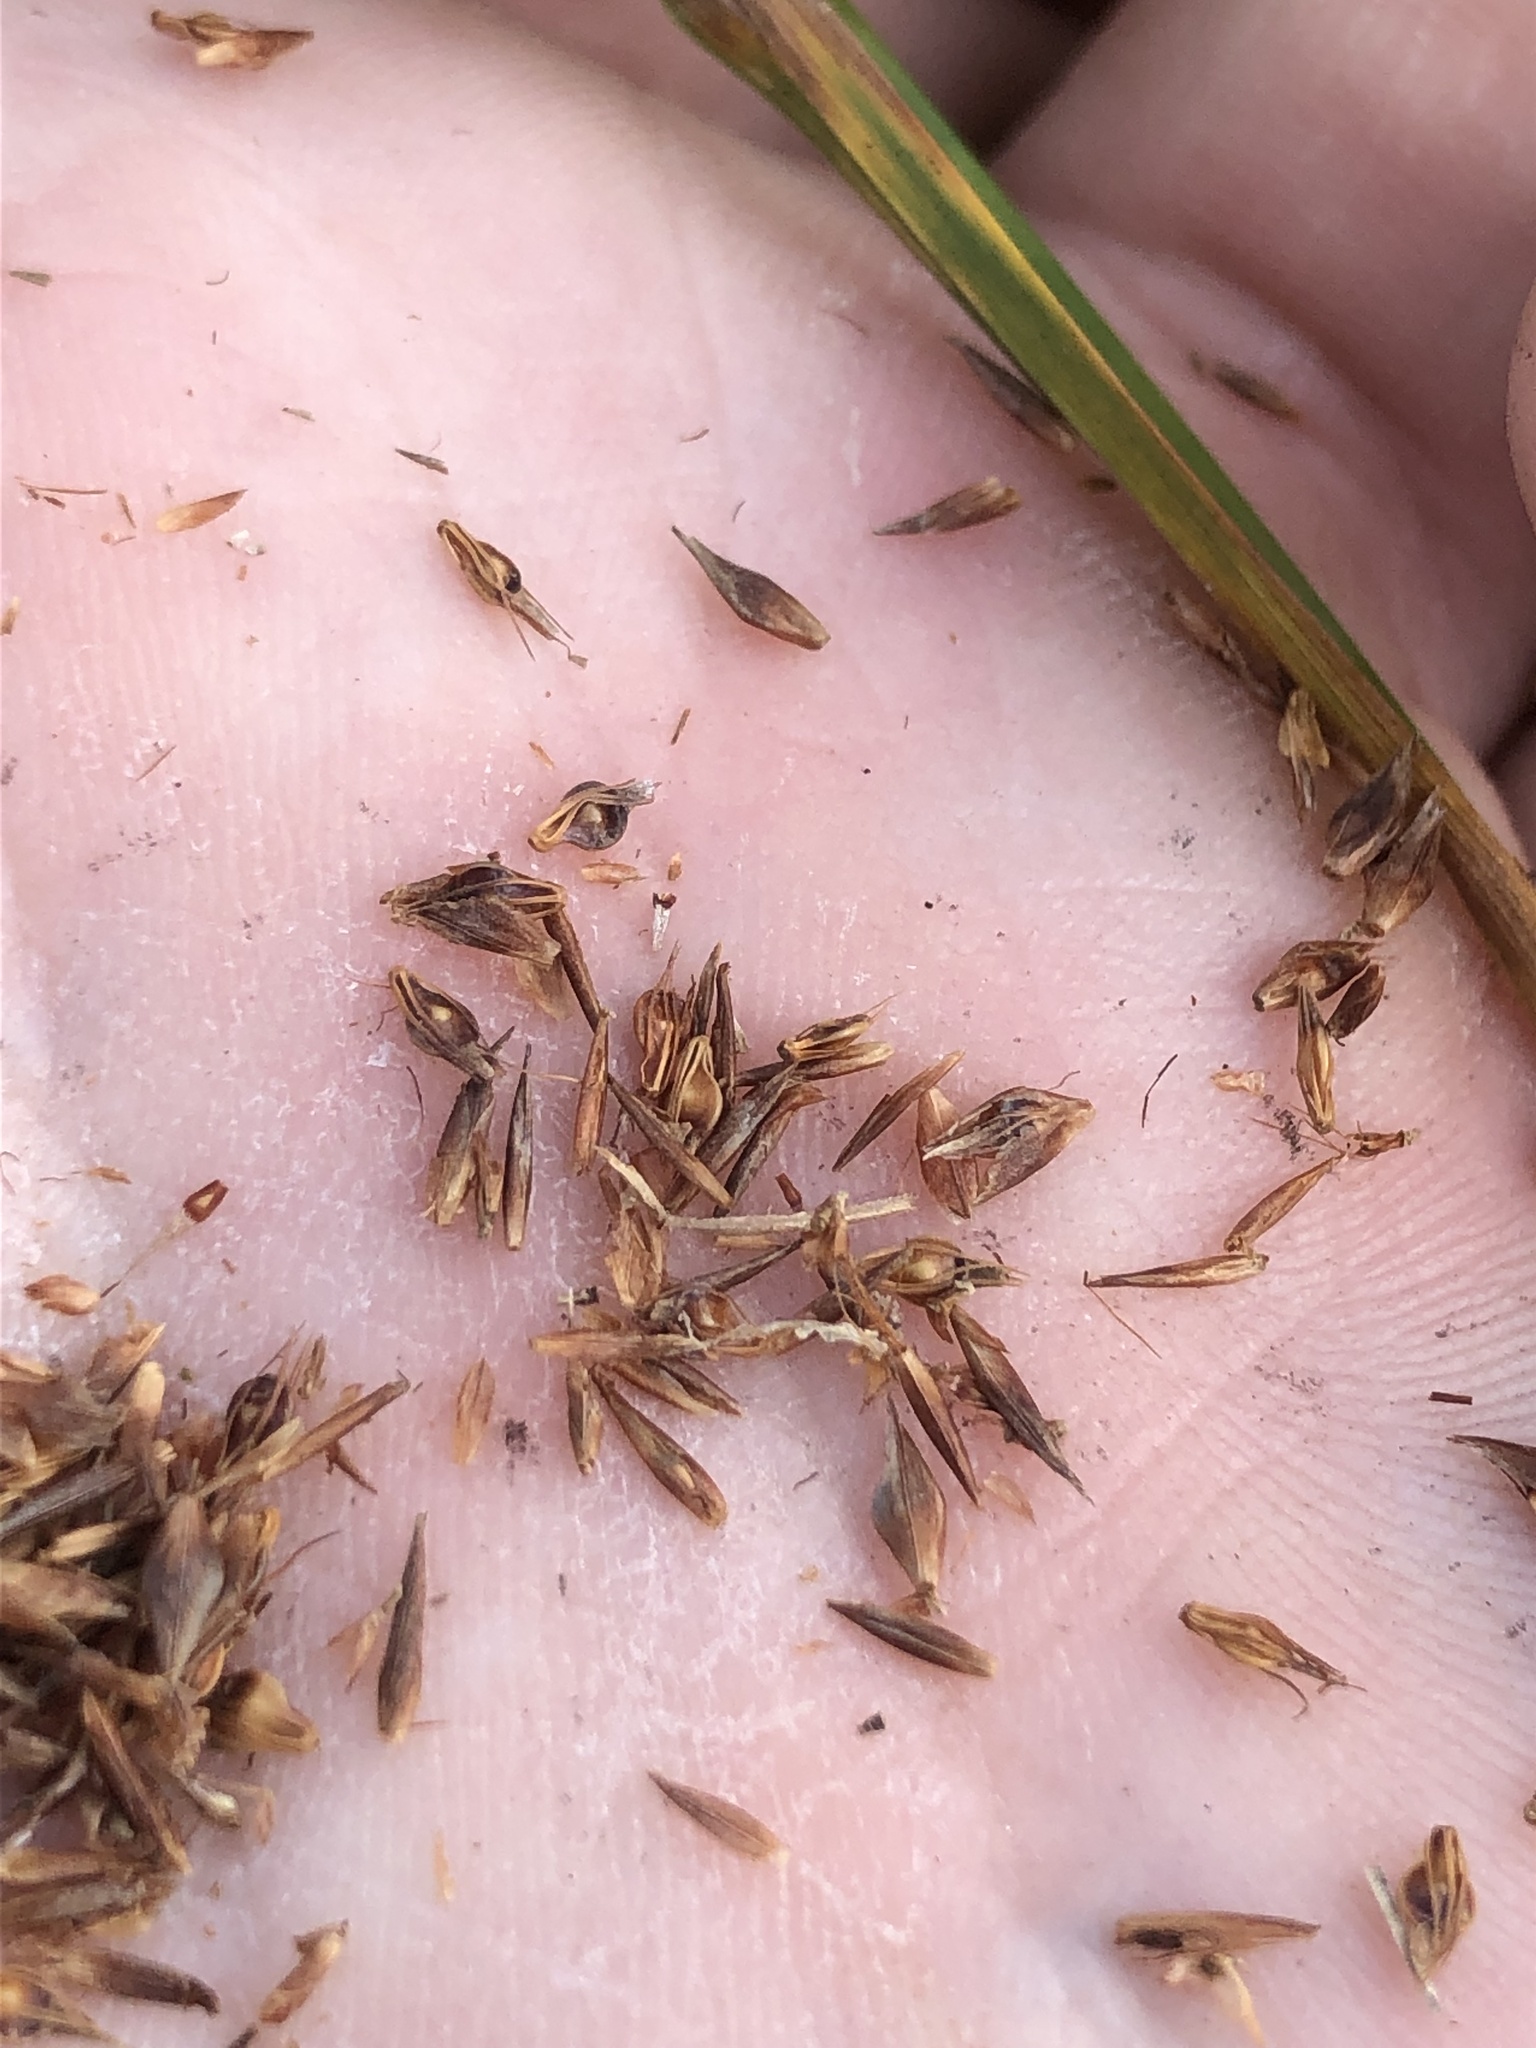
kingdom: Plantae
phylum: Tracheophyta
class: Liliopsida
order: Poales
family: Cyperaceae
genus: Rhynchospora
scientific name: Rhynchospora cephalantha
